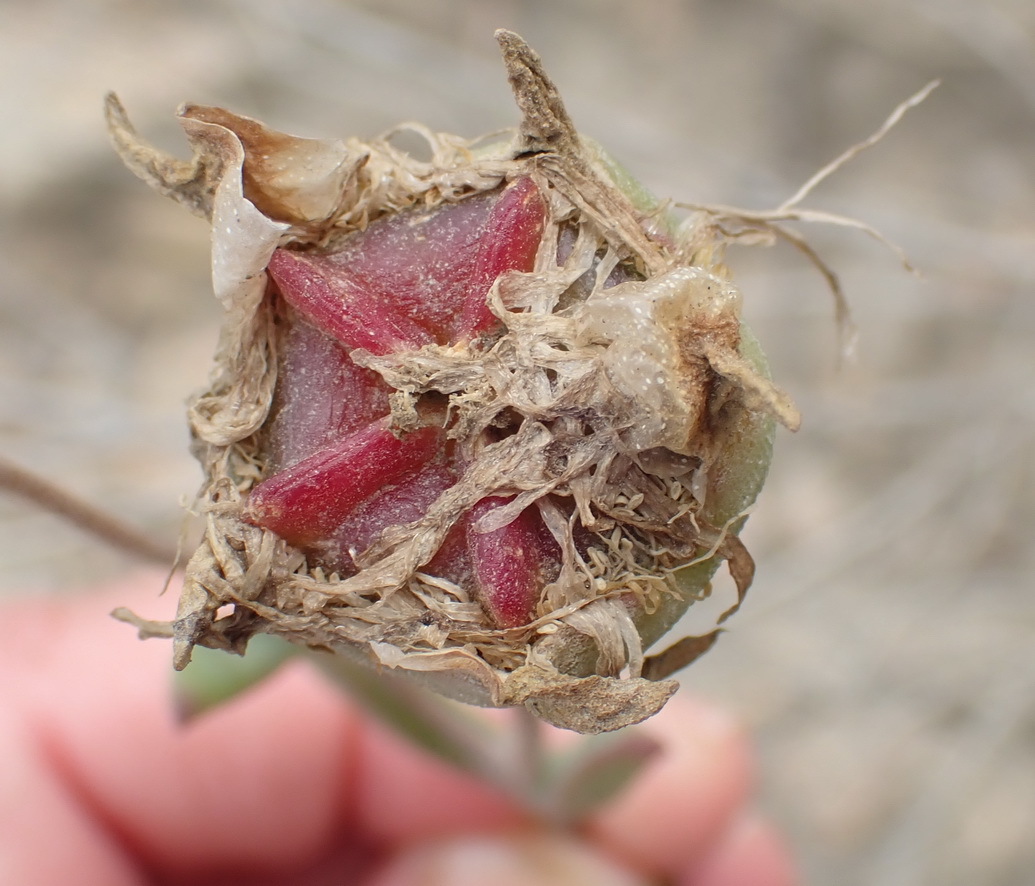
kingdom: Plantae
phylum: Tracheophyta
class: Magnoliopsida
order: Caryophyllales
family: Aizoaceae
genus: Drosanthemum
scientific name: Drosanthemum uniondalense
